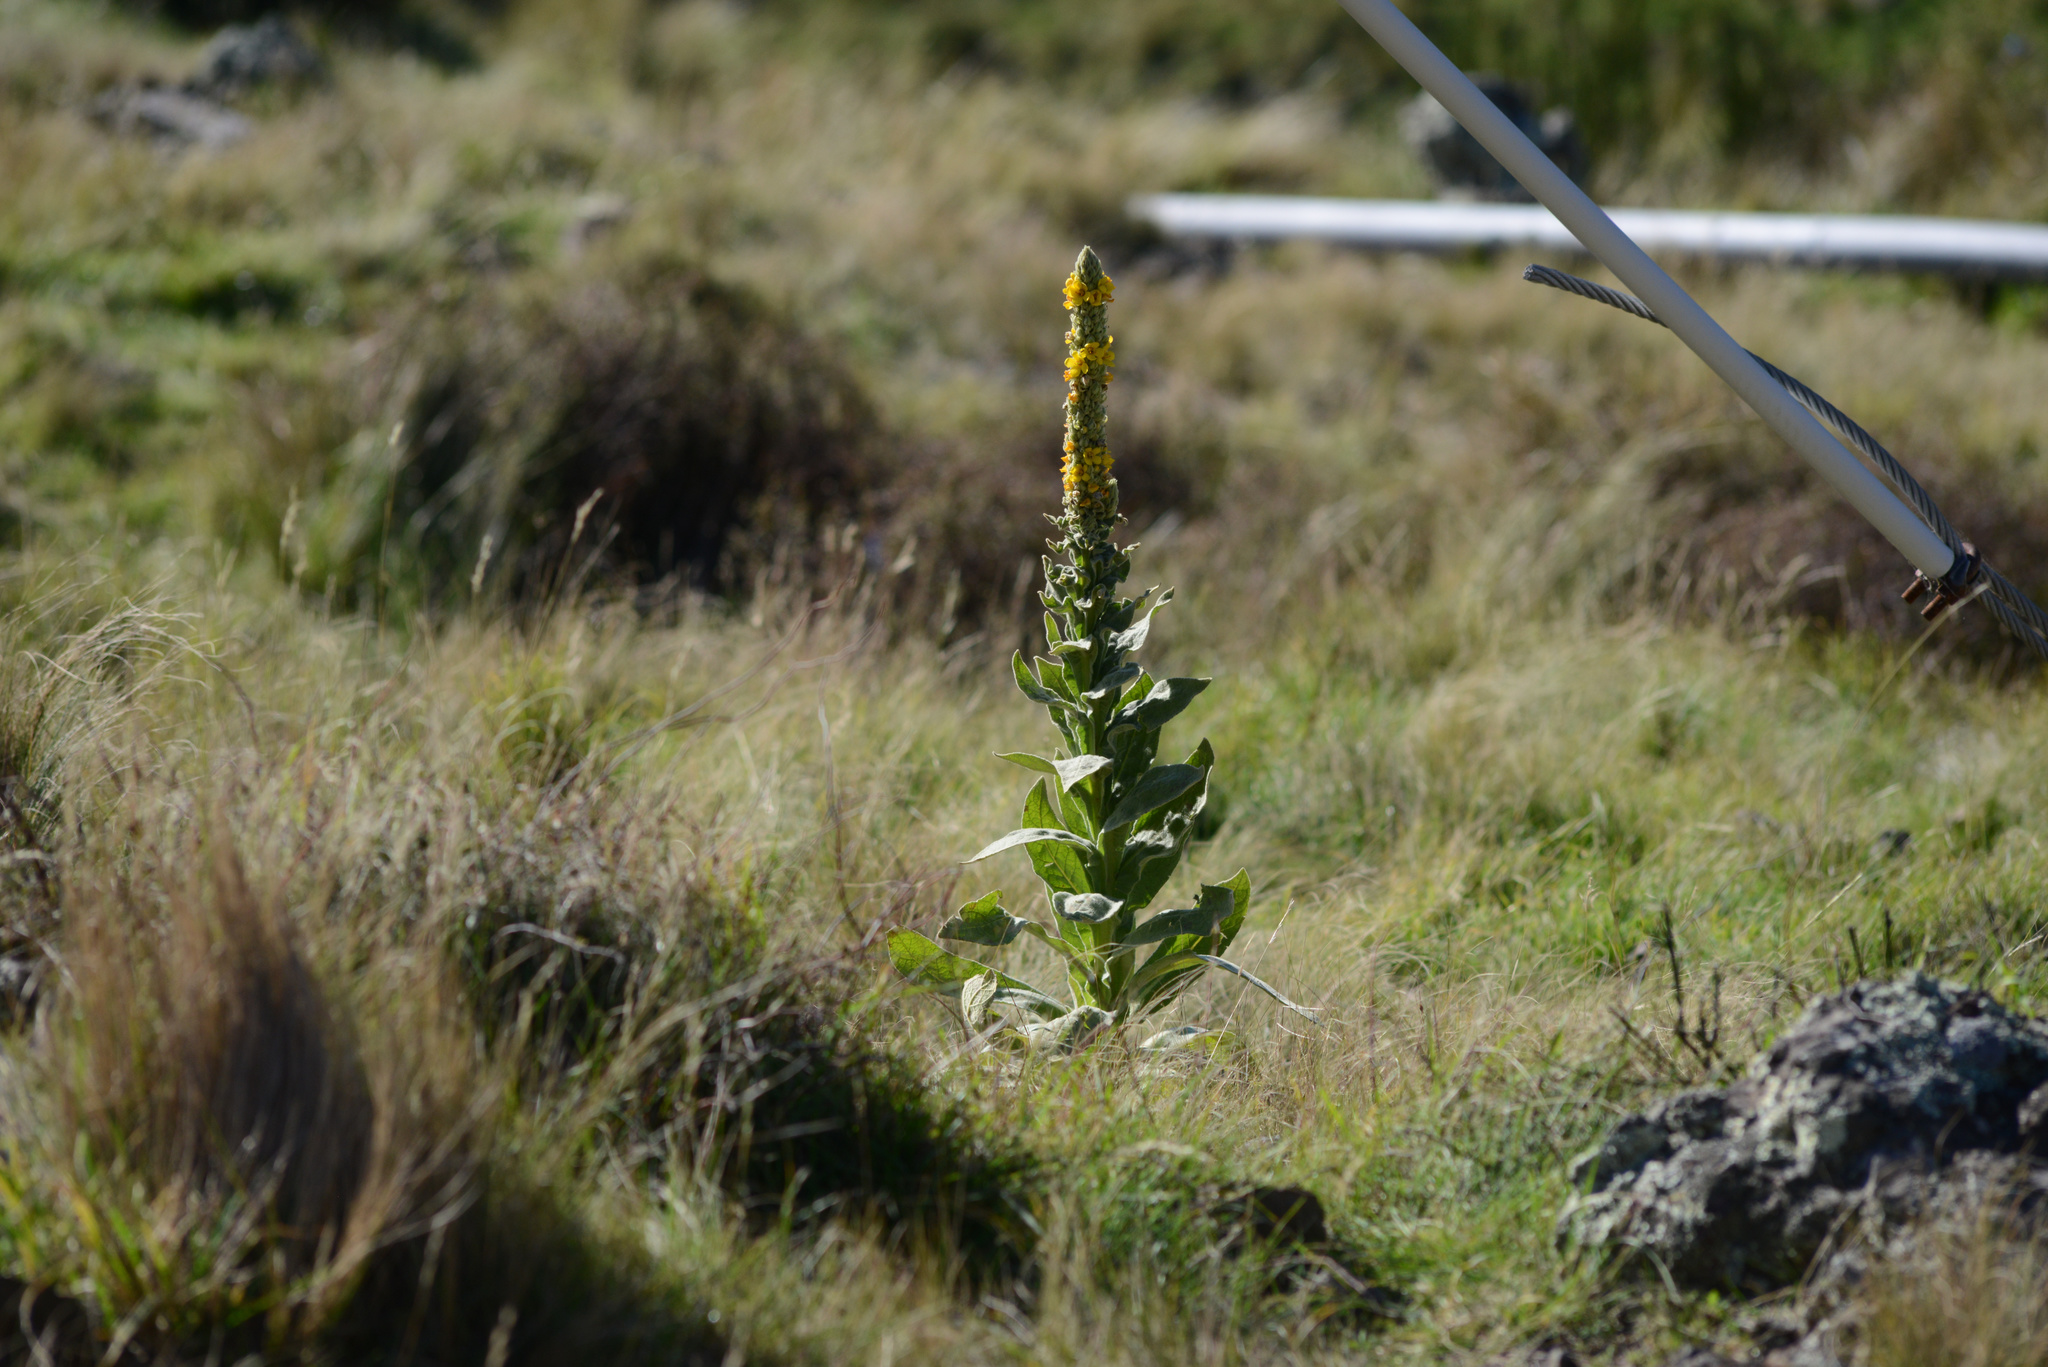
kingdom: Plantae
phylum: Tracheophyta
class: Magnoliopsida
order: Lamiales
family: Scrophulariaceae
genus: Verbascum
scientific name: Verbascum thapsus
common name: Common mullein
